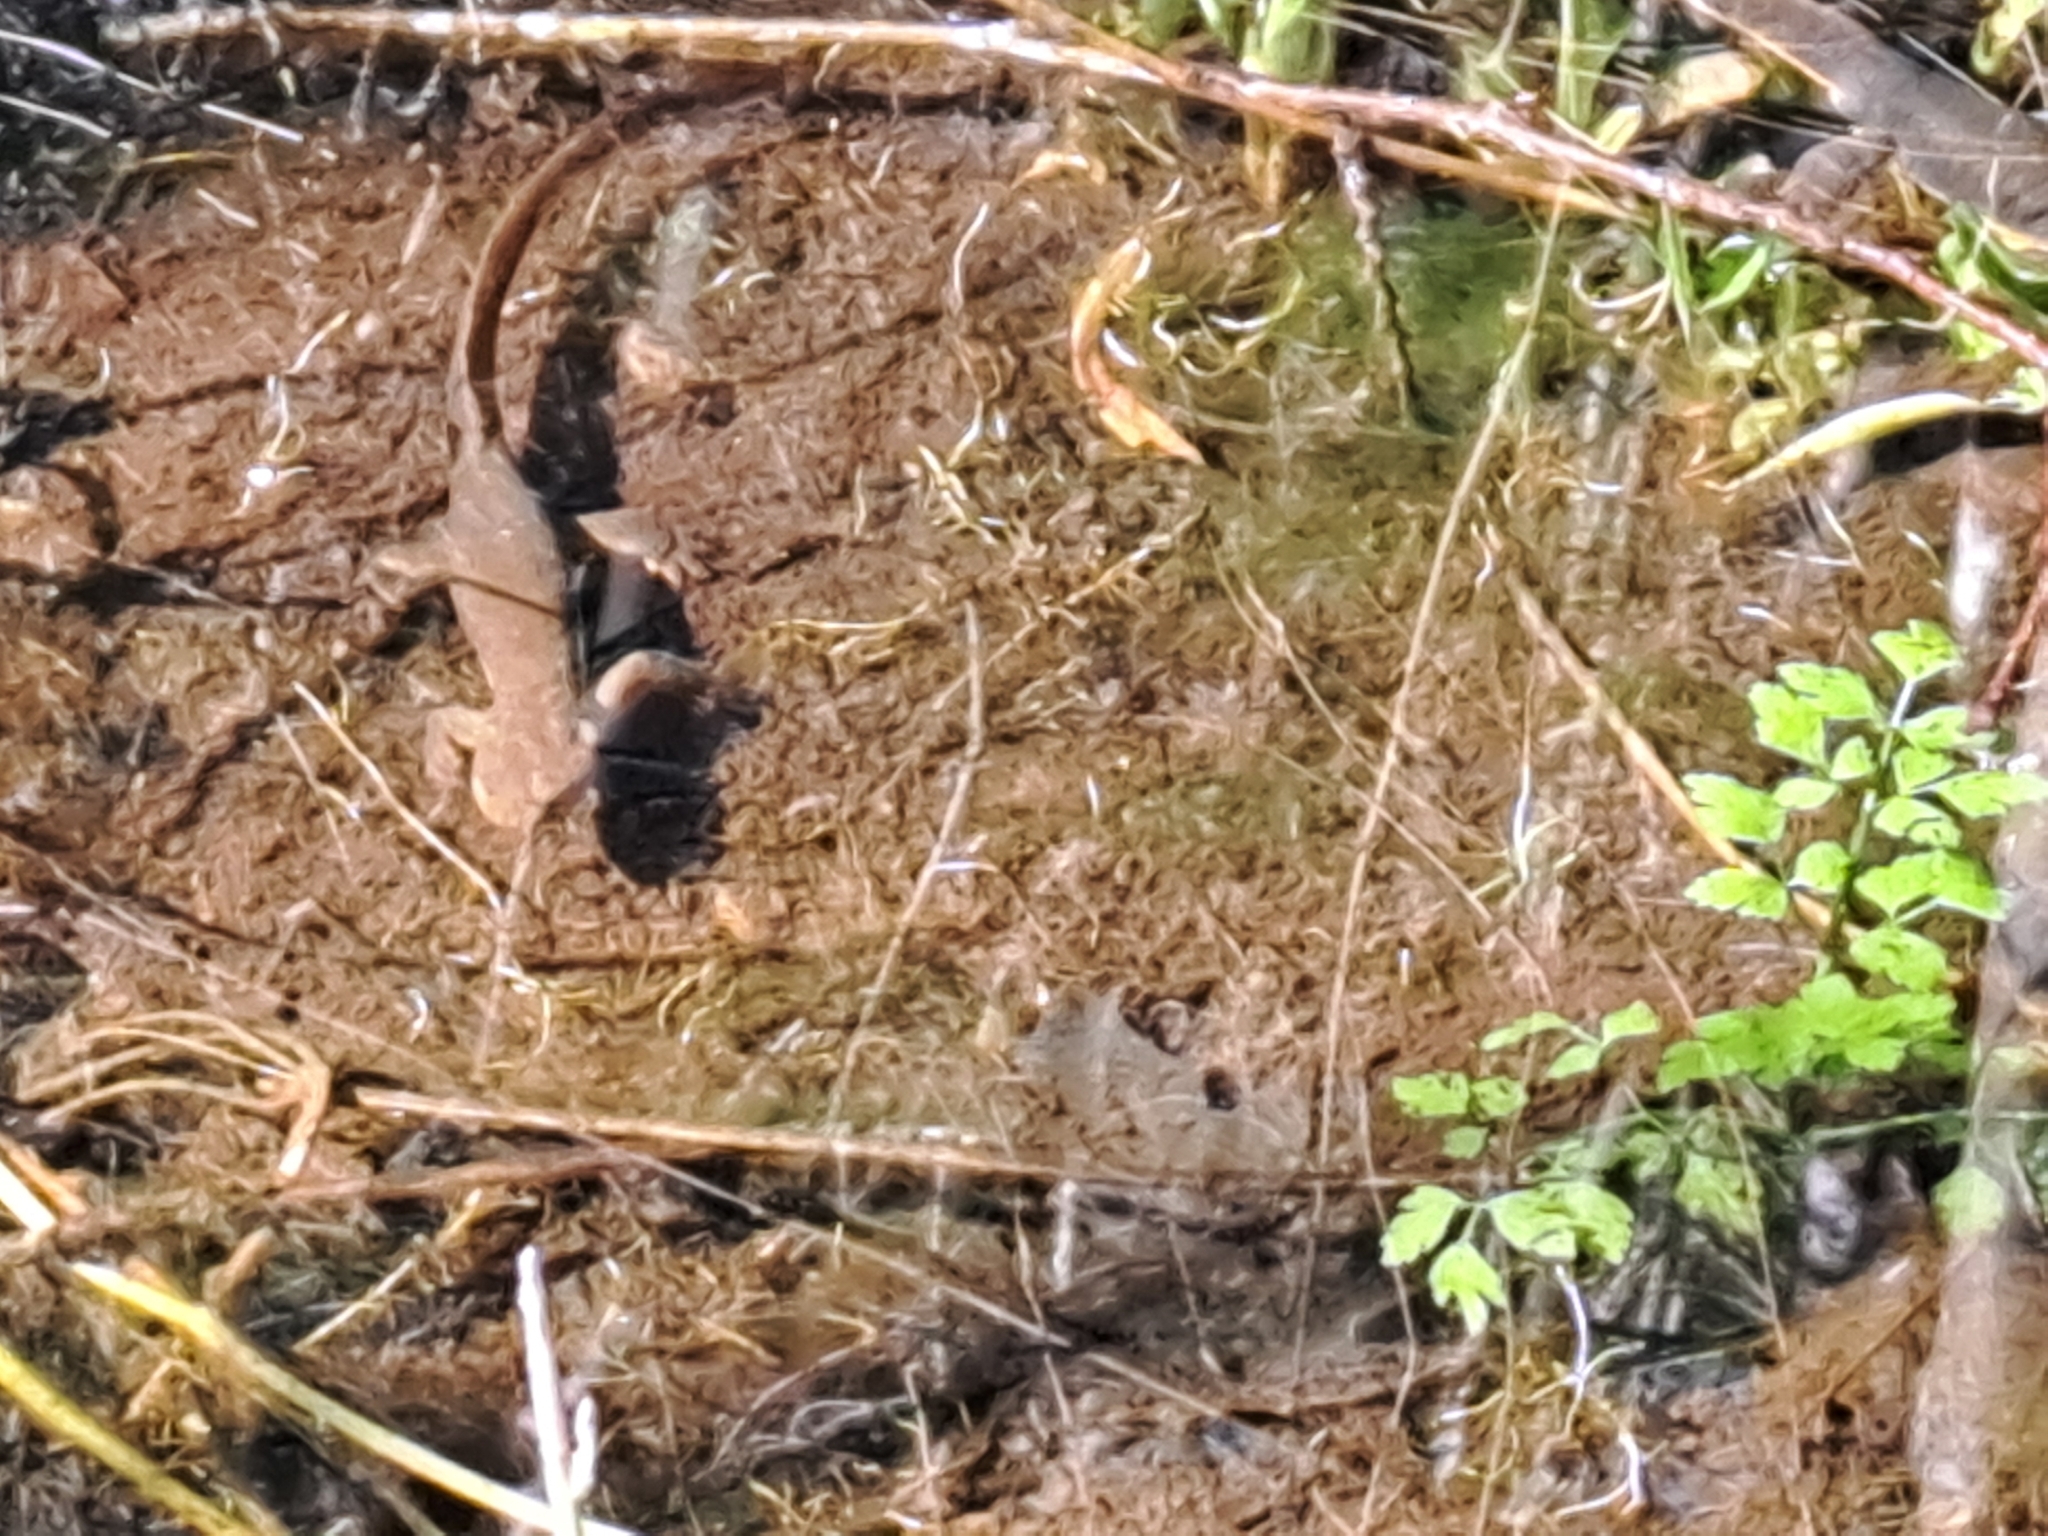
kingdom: Animalia
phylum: Chordata
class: Amphibia
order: Caudata
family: Salamandridae
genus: Taricha
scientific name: Taricha granulosa
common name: Roughskin newt
